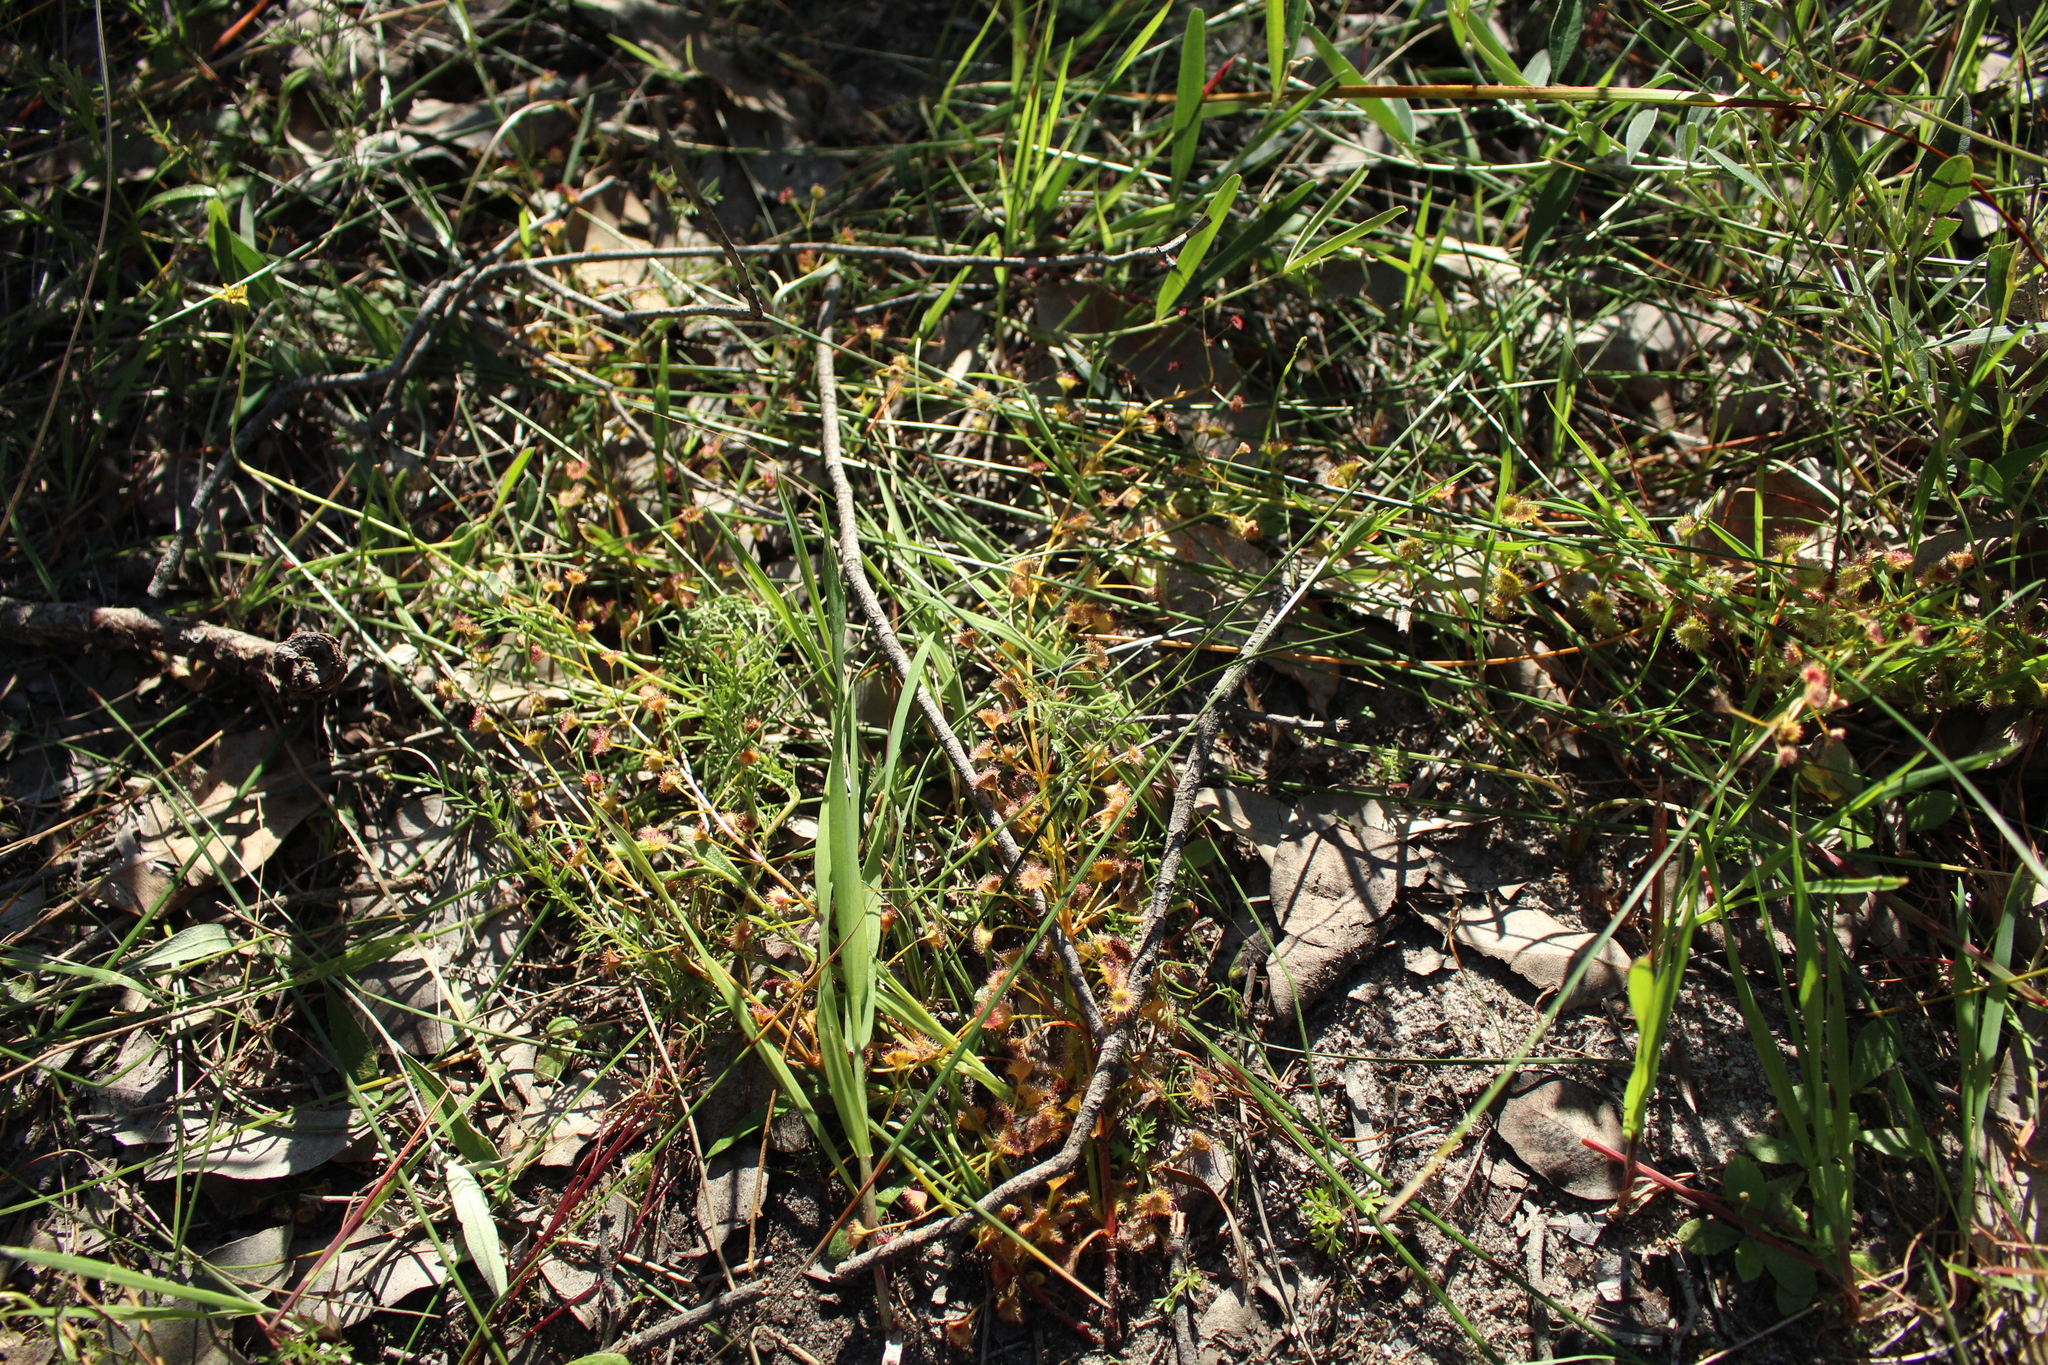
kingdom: Plantae
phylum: Tracheophyta
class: Magnoliopsida
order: Caryophyllales
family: Droseraceae
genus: Drosera
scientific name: Drosera stolonifera
